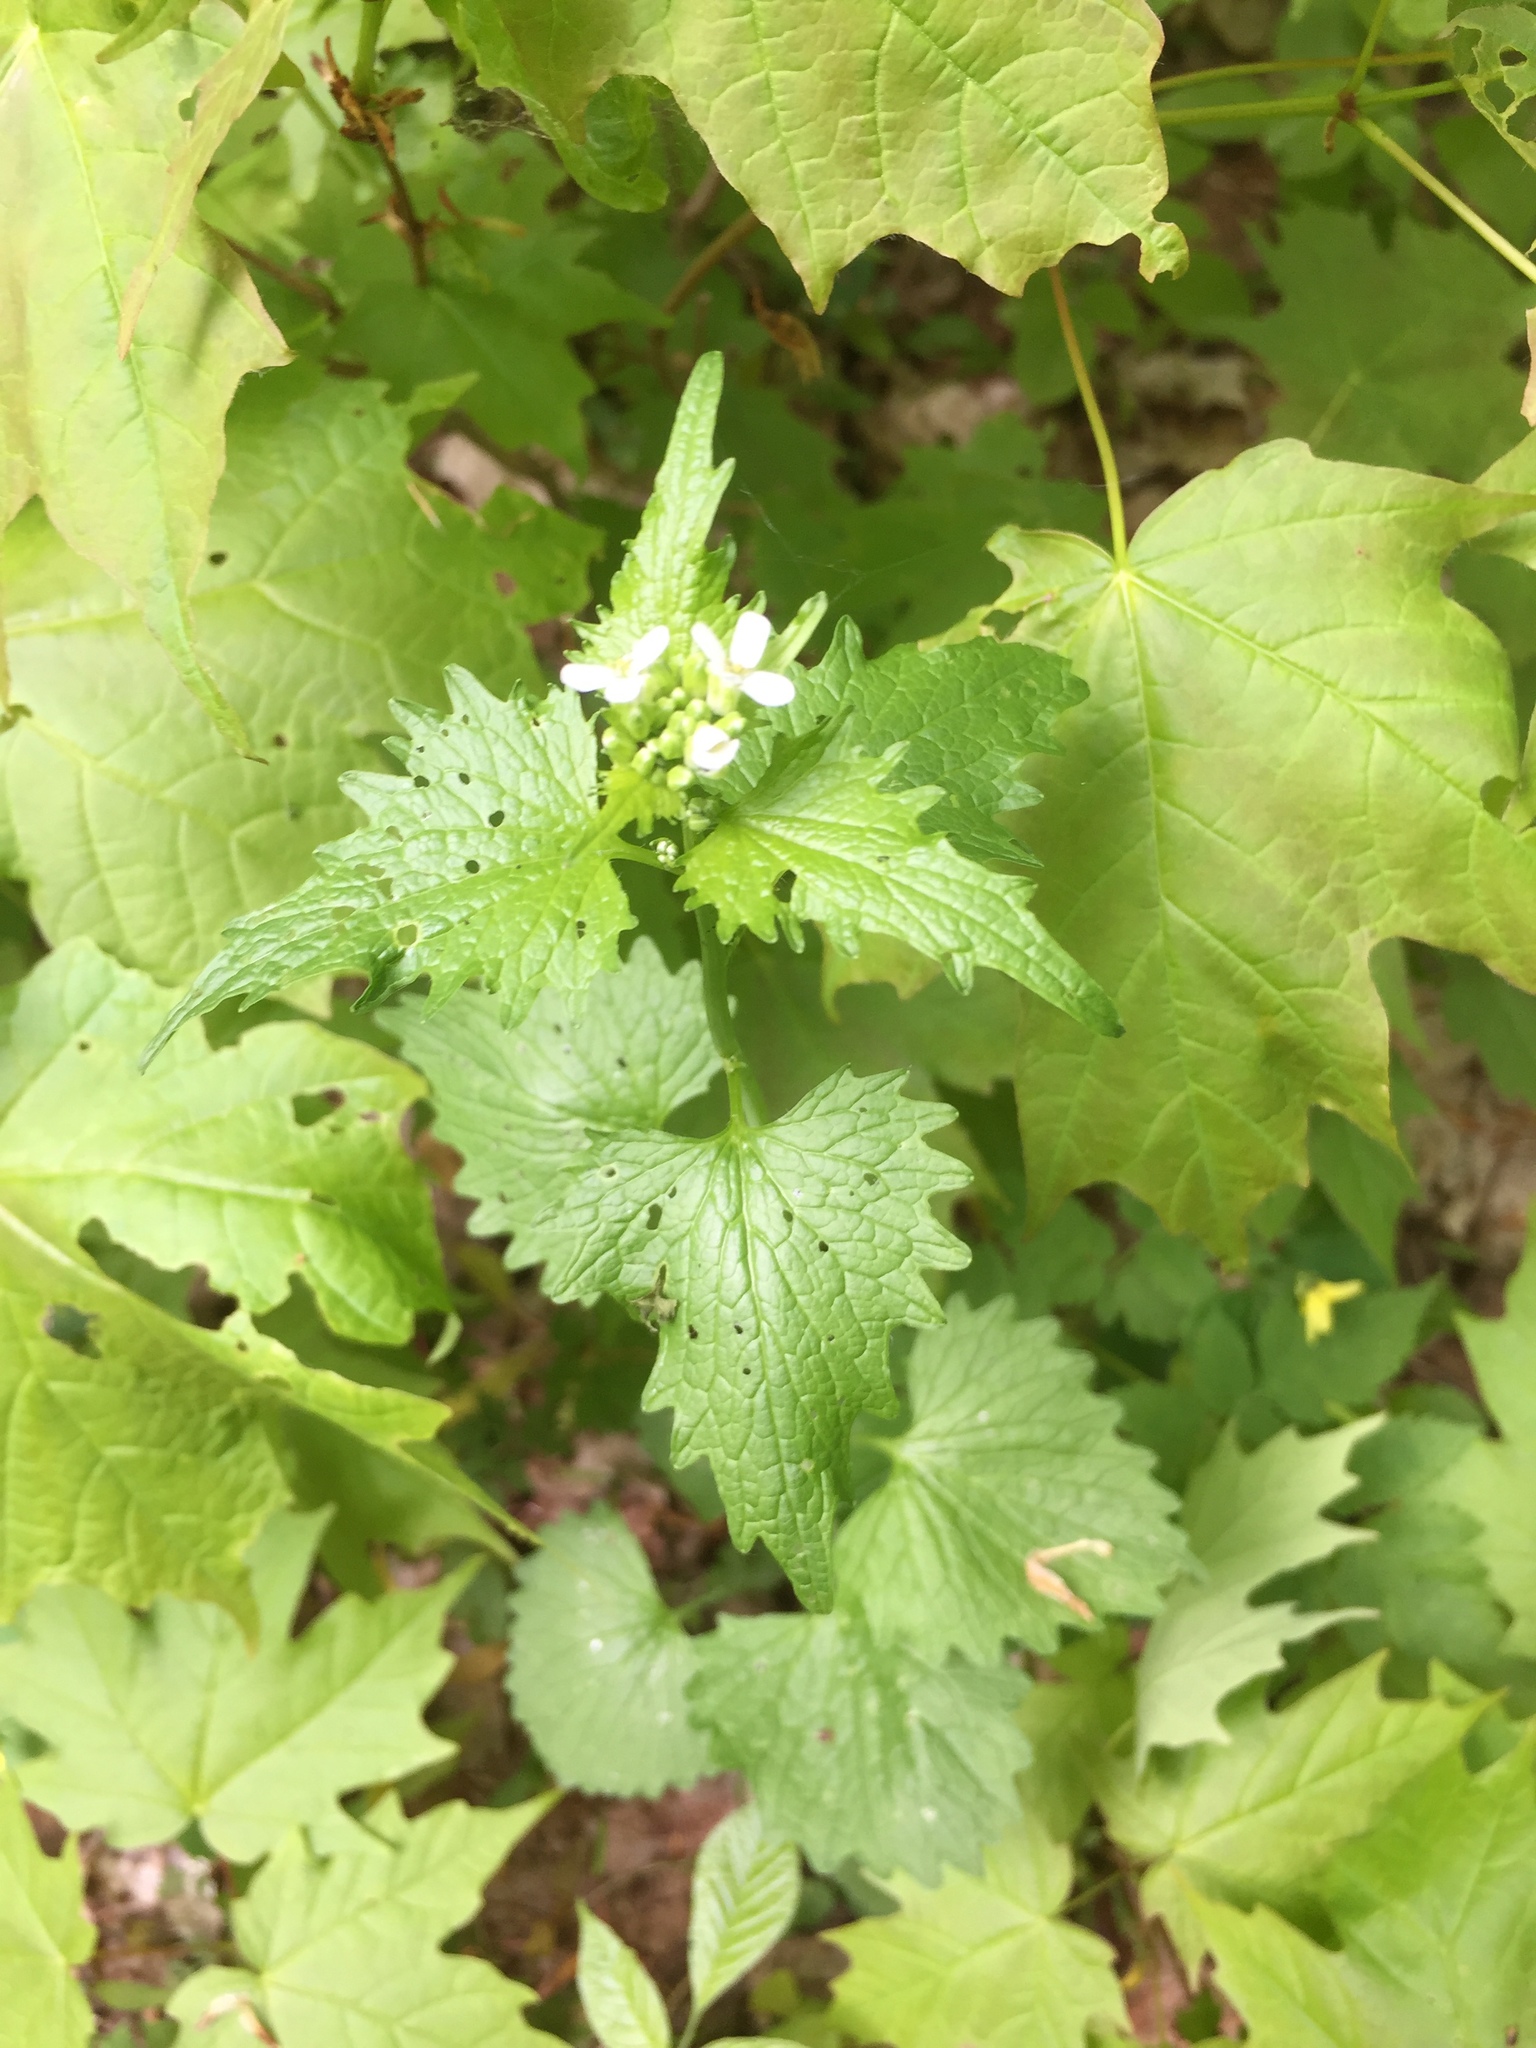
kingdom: Plantae
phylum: Tracheophyta
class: Magnoliopsida
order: Brassicales
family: Brassicaceae
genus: Alliaria
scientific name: Alliaria petiolata
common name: Garlic mustard
